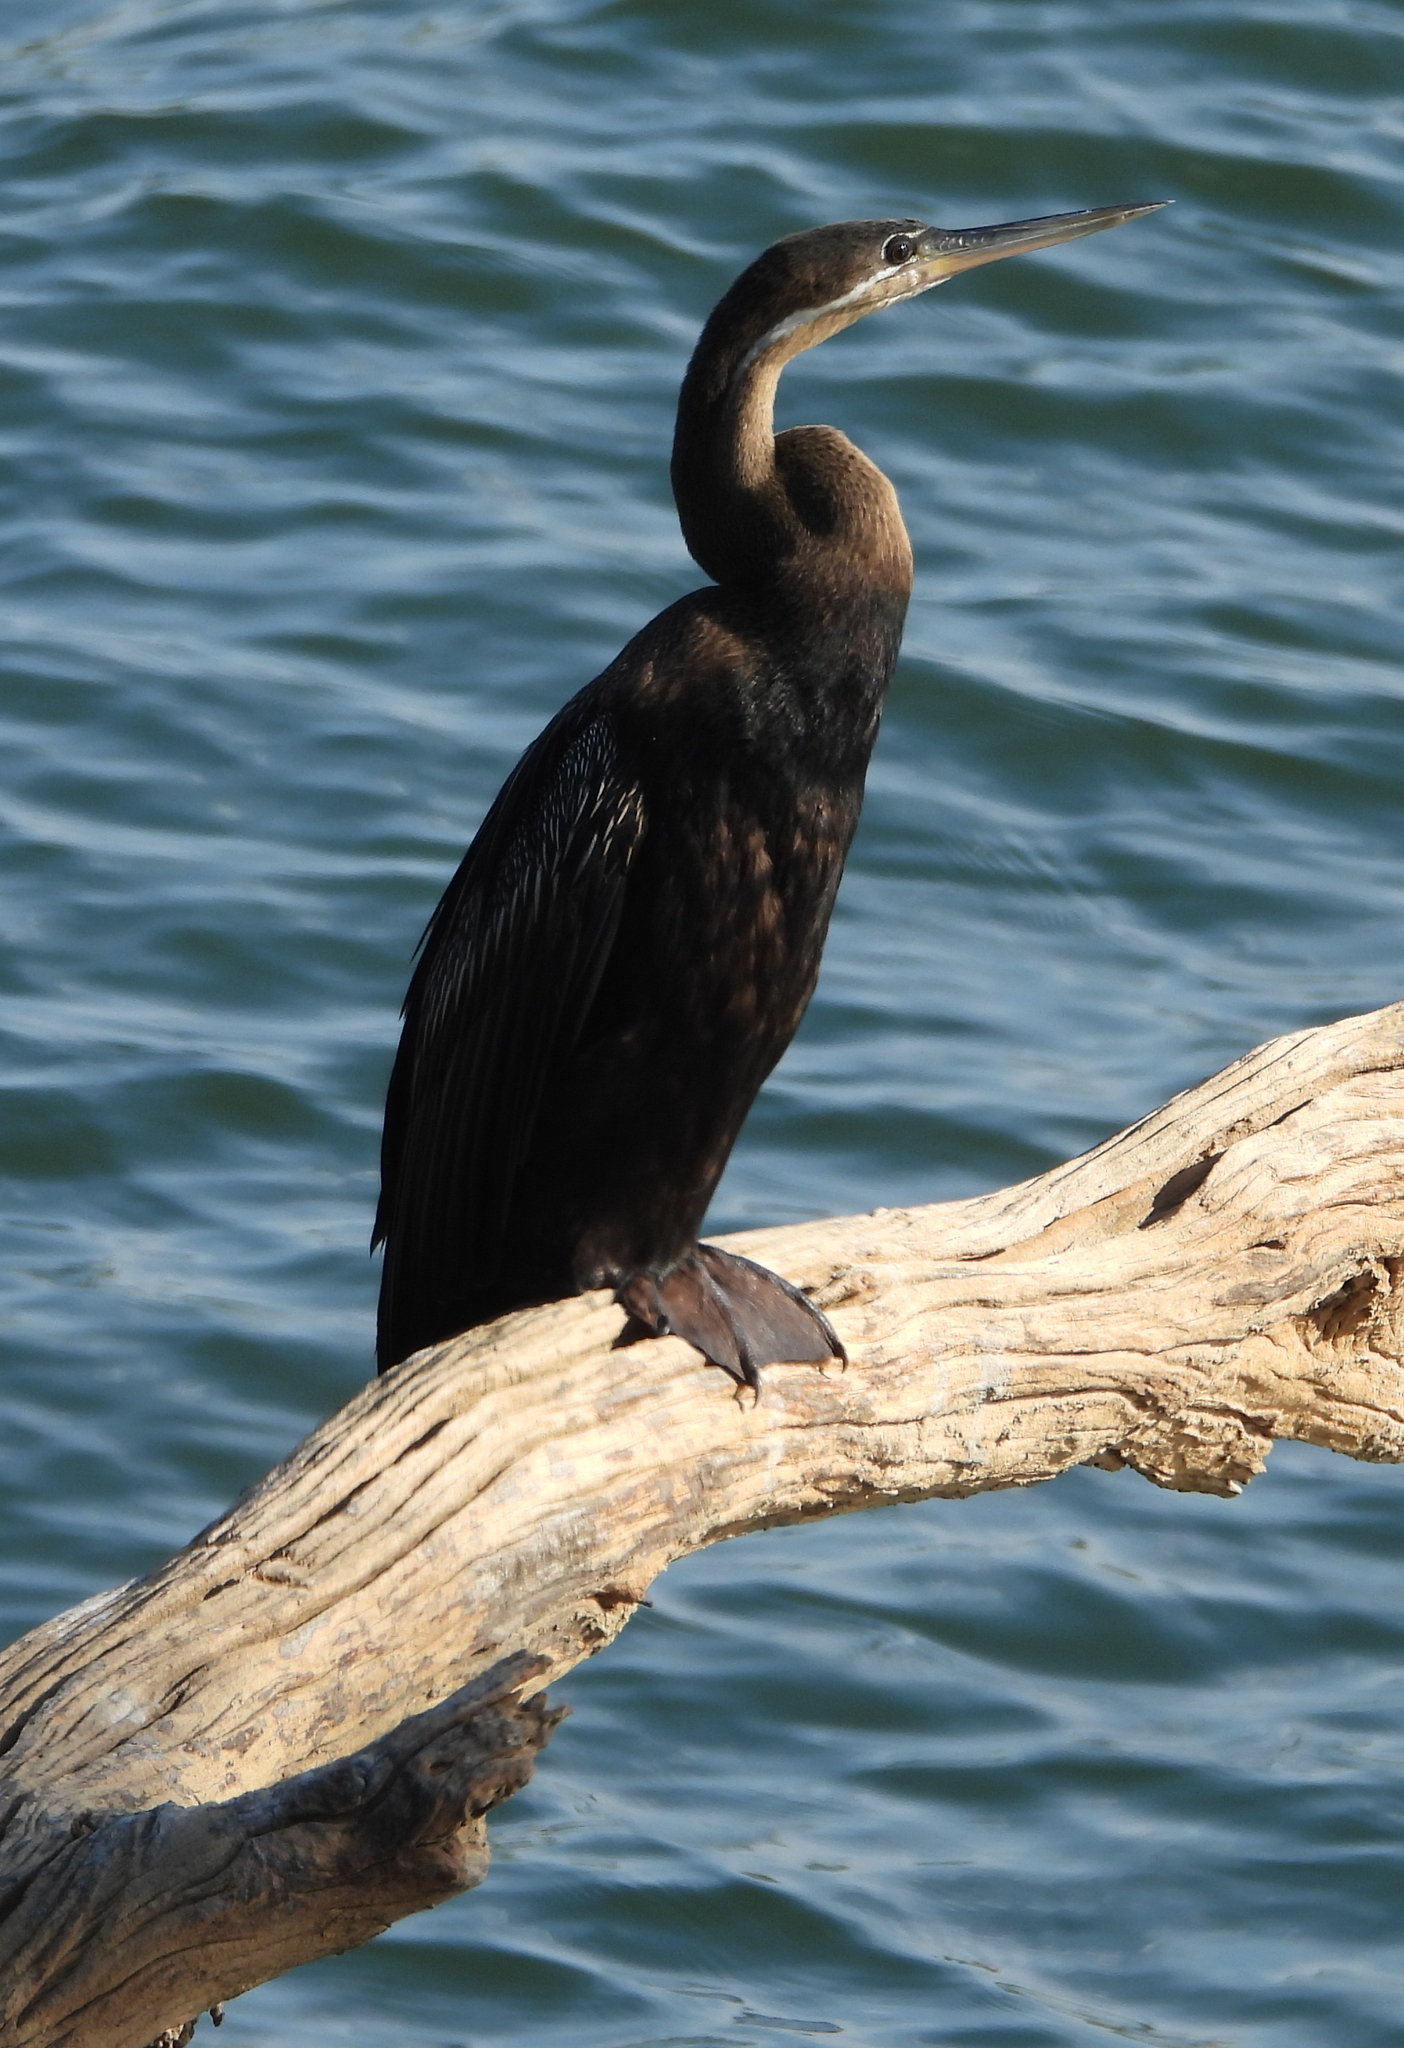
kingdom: Animalia
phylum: Chordata
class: Aves
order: Suliformes
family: Anhingidae
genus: Anhinga
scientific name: Anhinga rufa
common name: African darter
